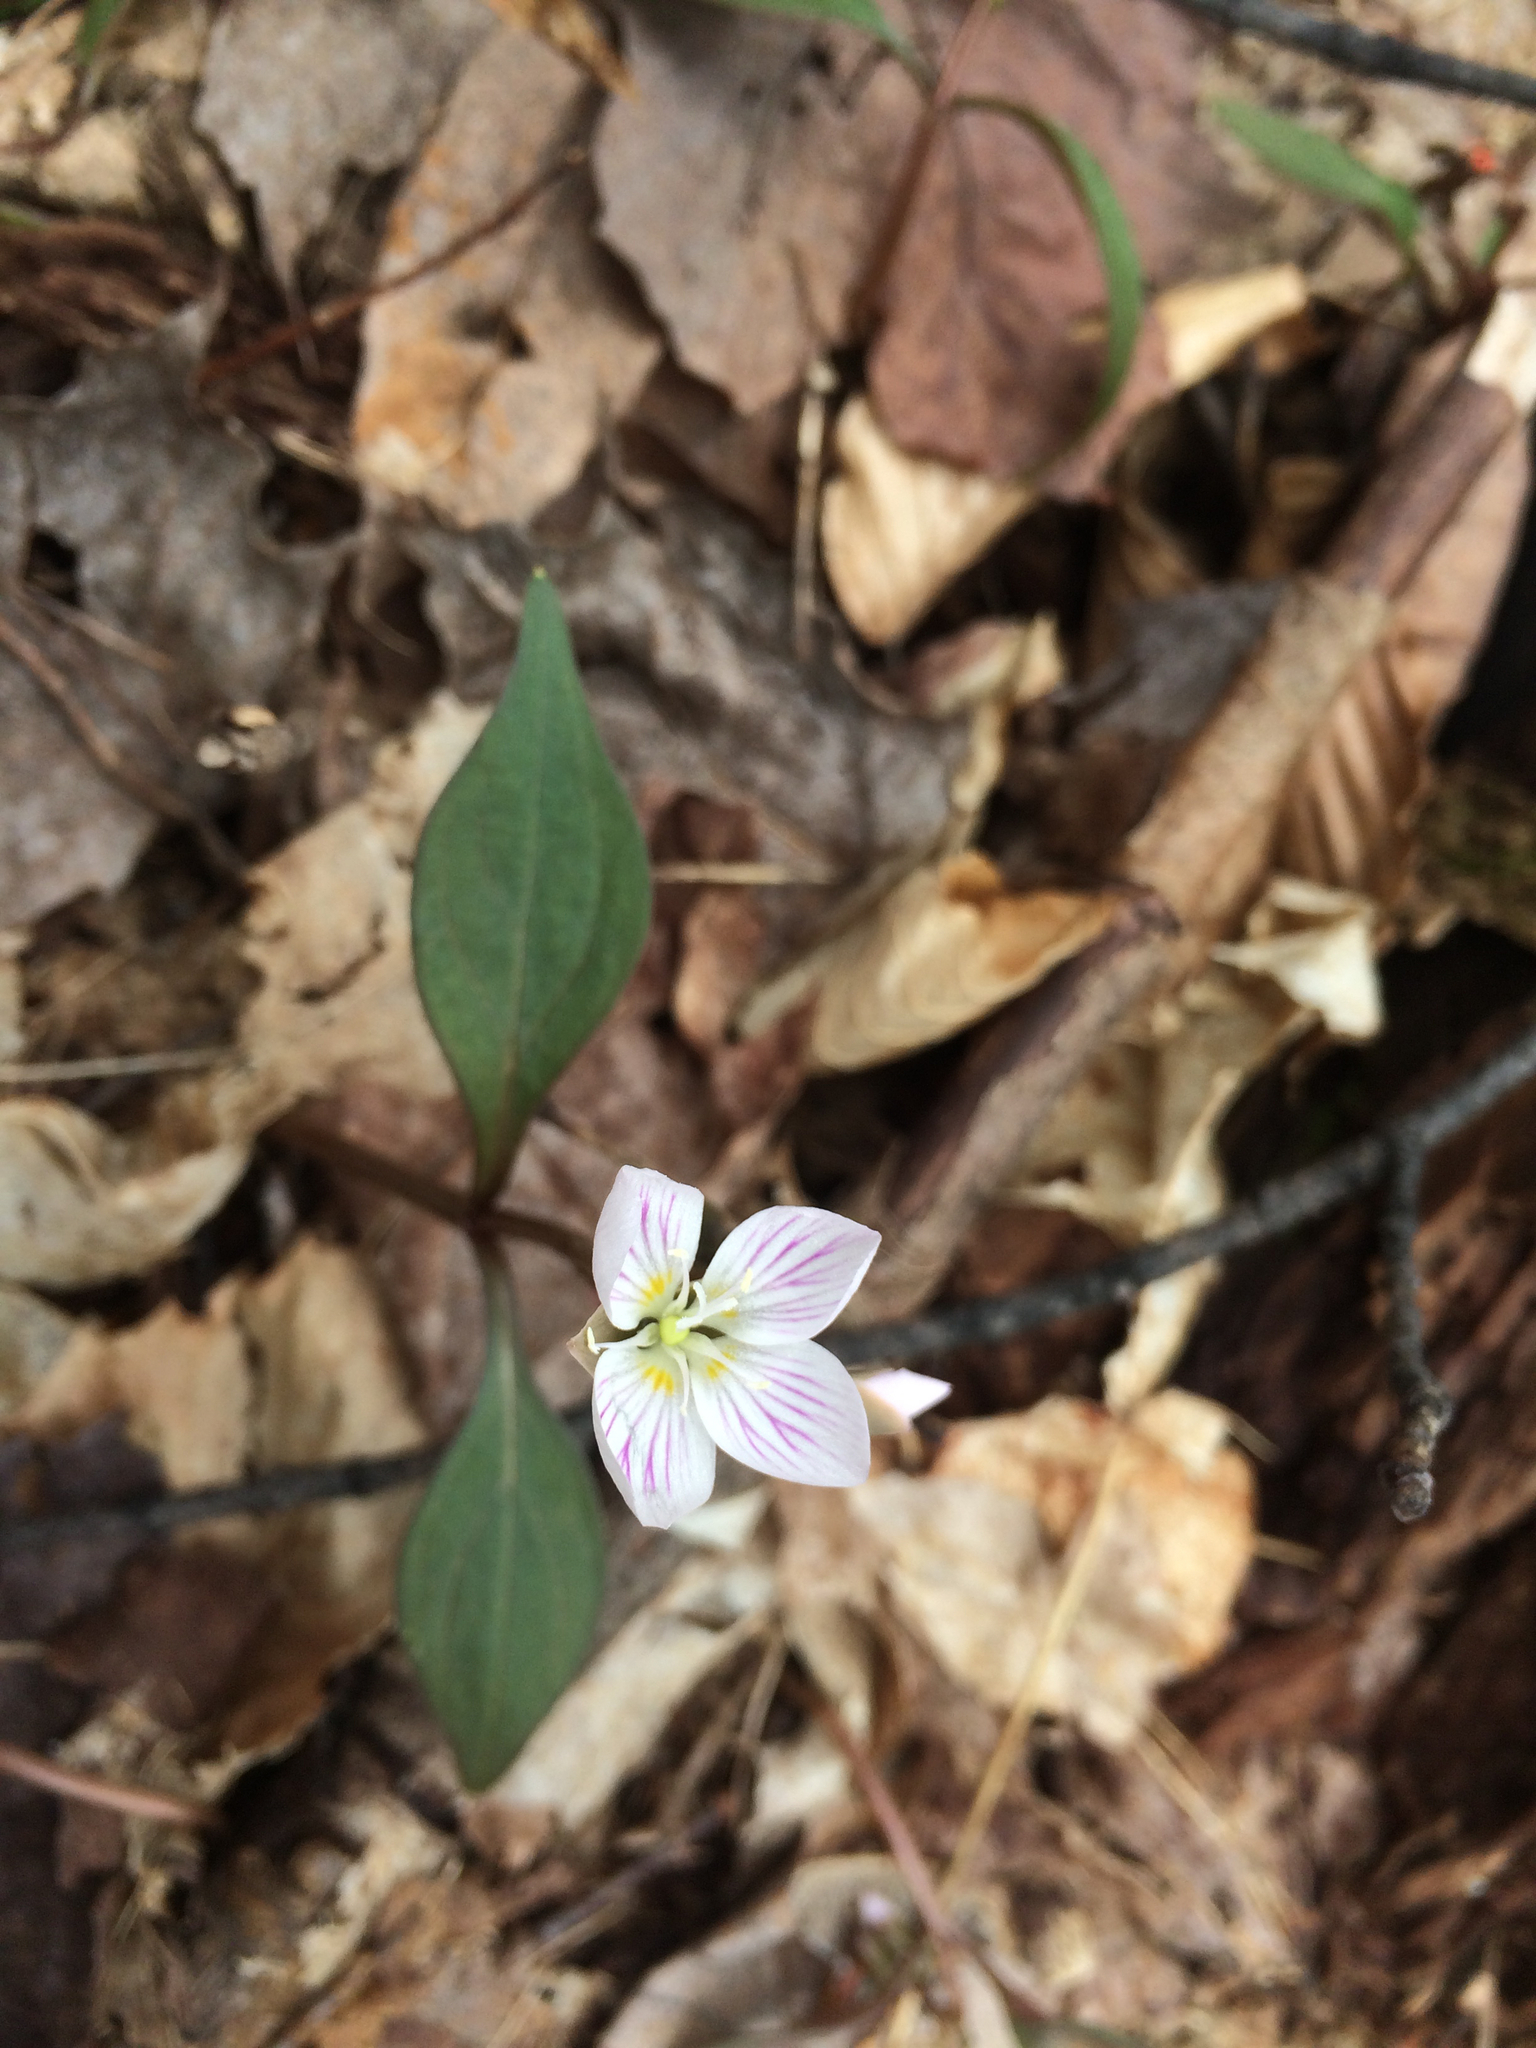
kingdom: Plantae
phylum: Tracheophyta
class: Magnoliopsida
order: Caryophyllales
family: Montiaceae
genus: Claytonia
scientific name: Claytonia caroliniana
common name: Carolina spring beauty
